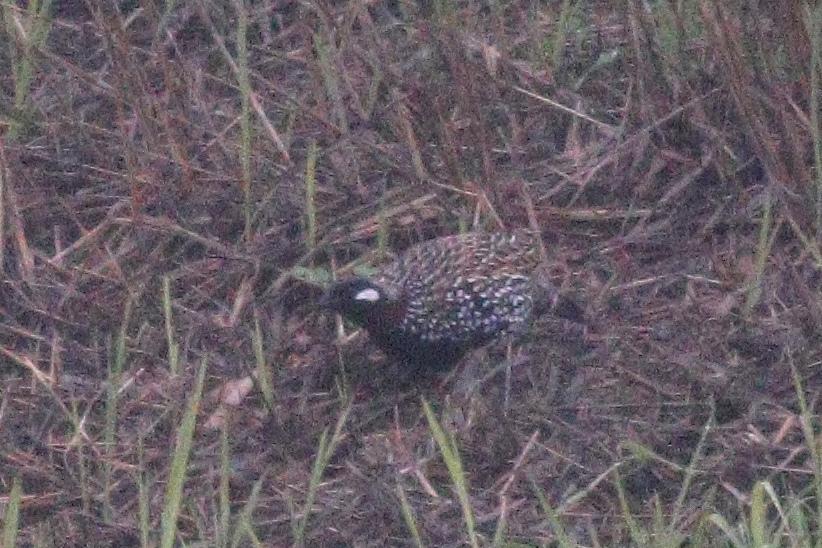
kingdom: Animalia
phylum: Chordata
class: Aves
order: Galliformes
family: Phasianidae
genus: Francolinus
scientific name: Francolinus francolinus
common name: Black francolin
